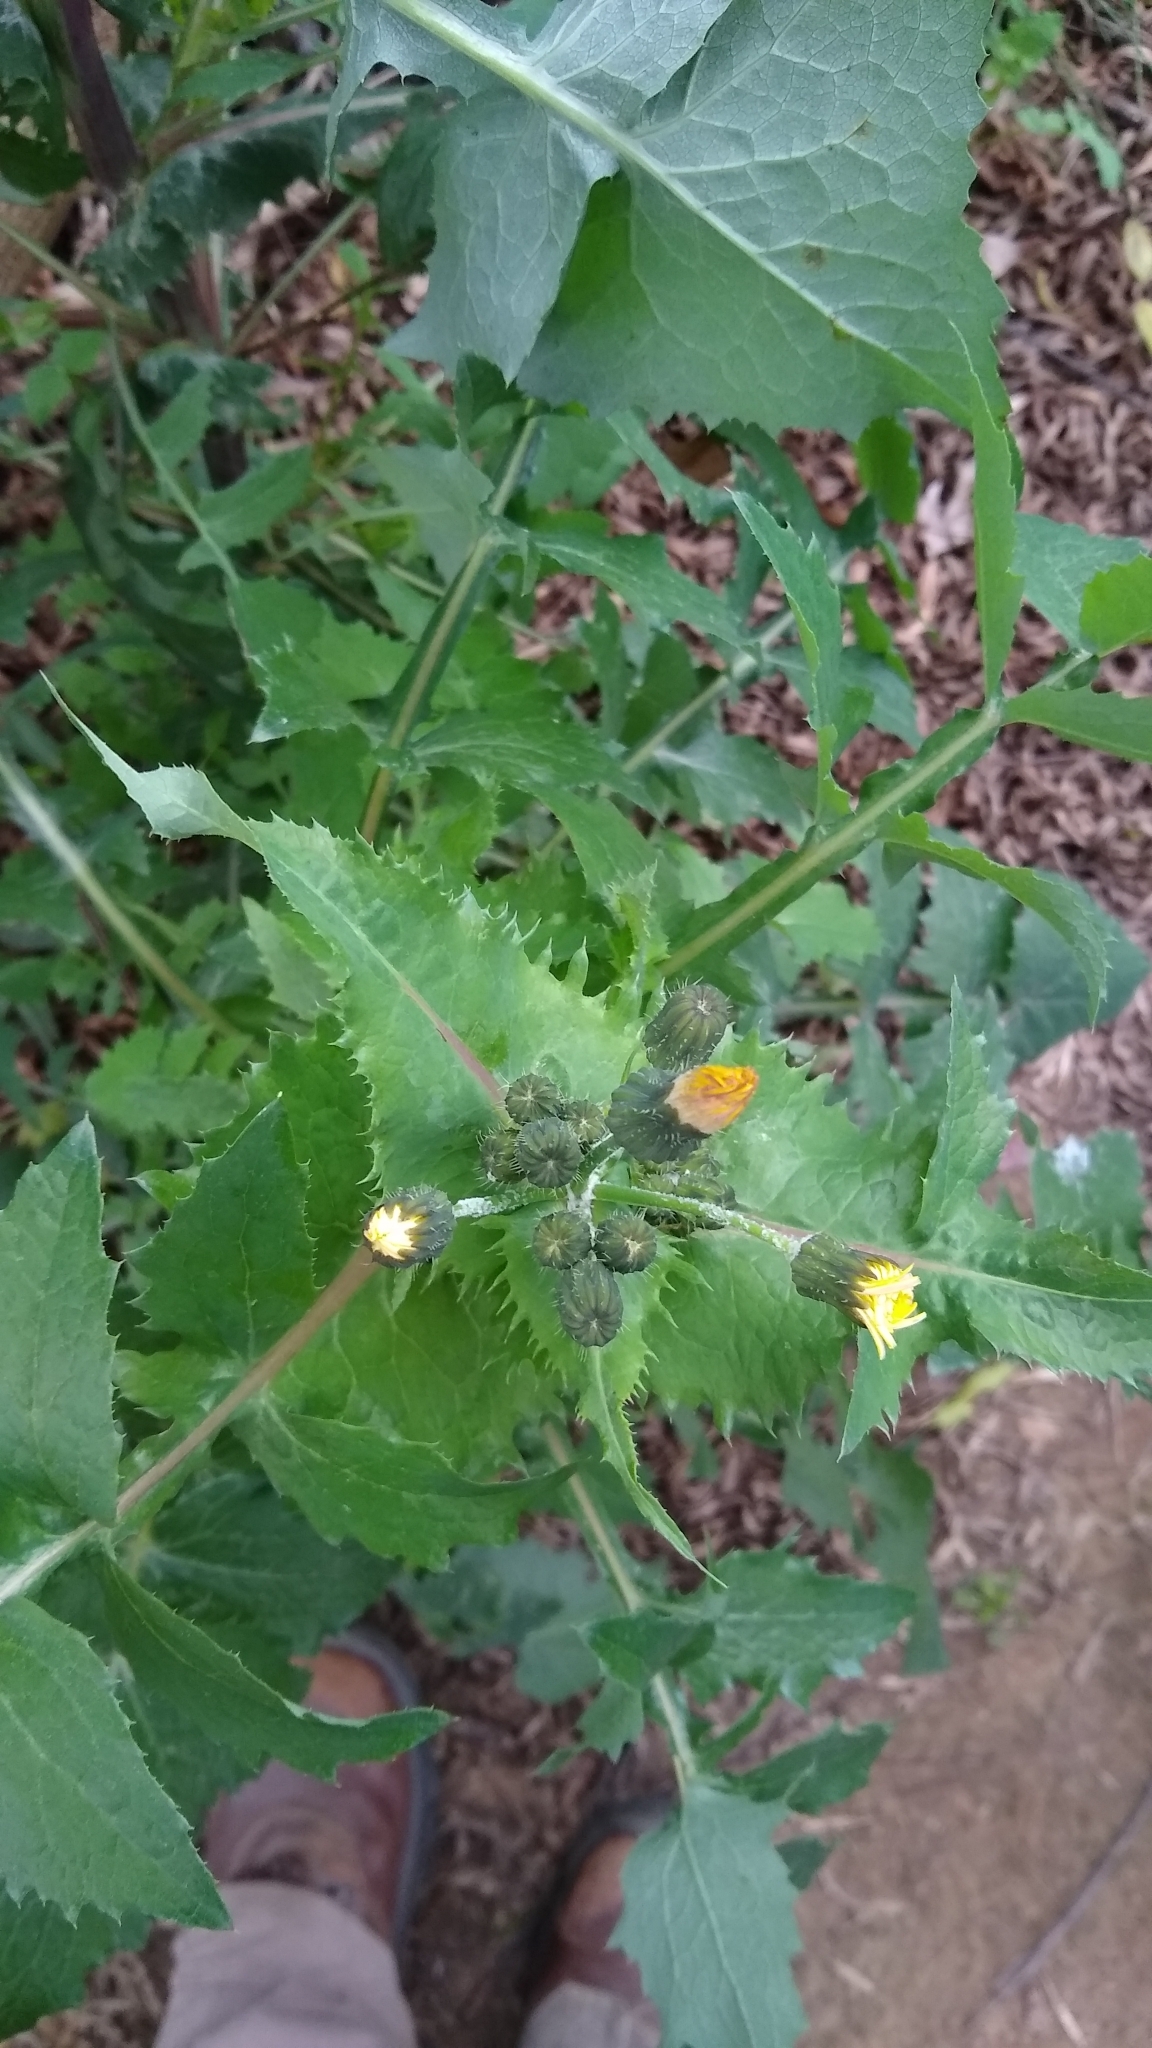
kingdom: Plantae
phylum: Tracheophyta
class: Magnoliopsida
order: Asterales
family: Asteraceae
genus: Sonchus
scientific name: Sonchus oleraceus
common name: Common sowthistle
